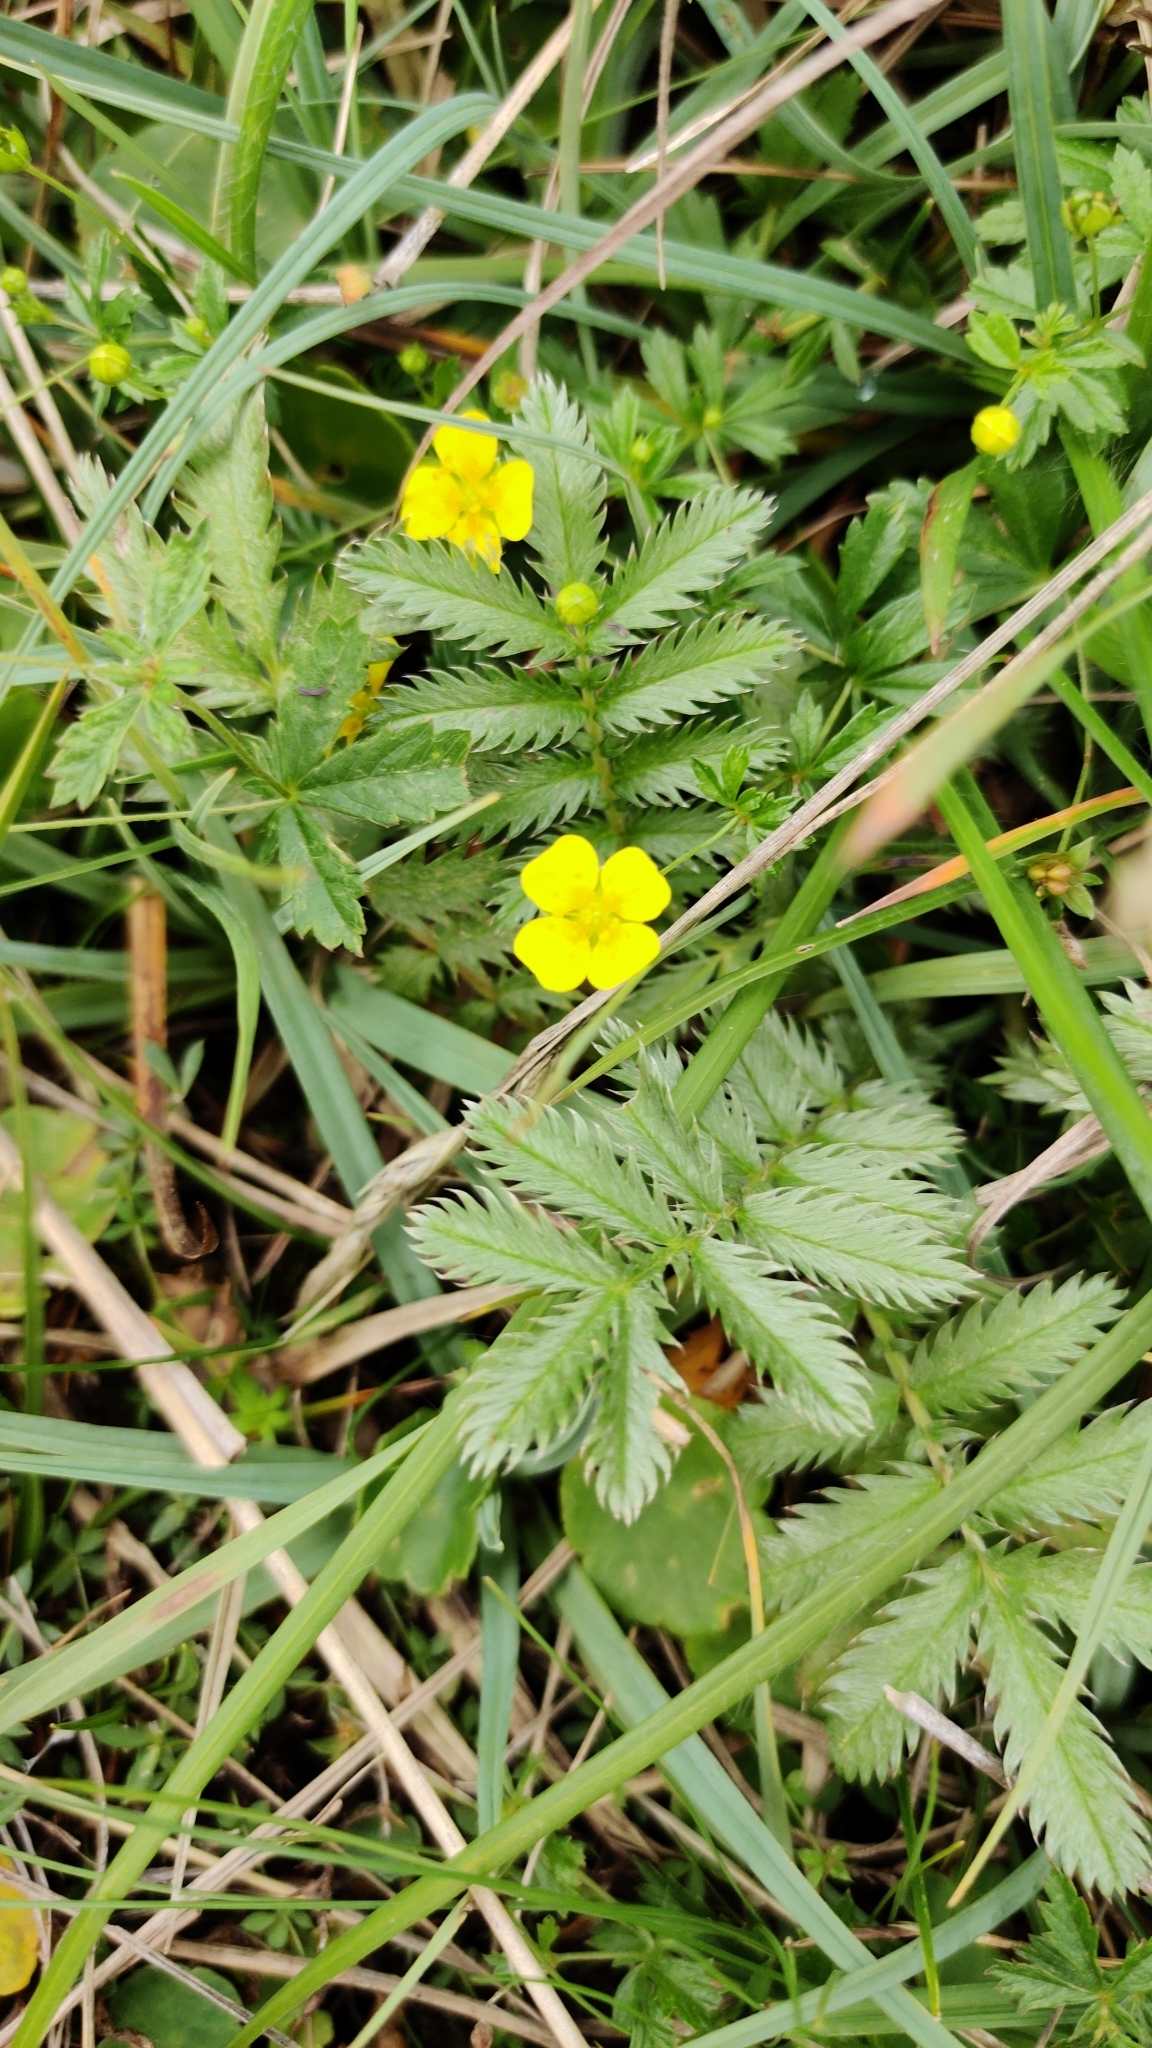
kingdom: Plantae
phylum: Tracheophyta
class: Magnoliopsida
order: Rosales
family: Rosaceae
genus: Argentina
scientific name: Argentina anserina
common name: Common silverweed
